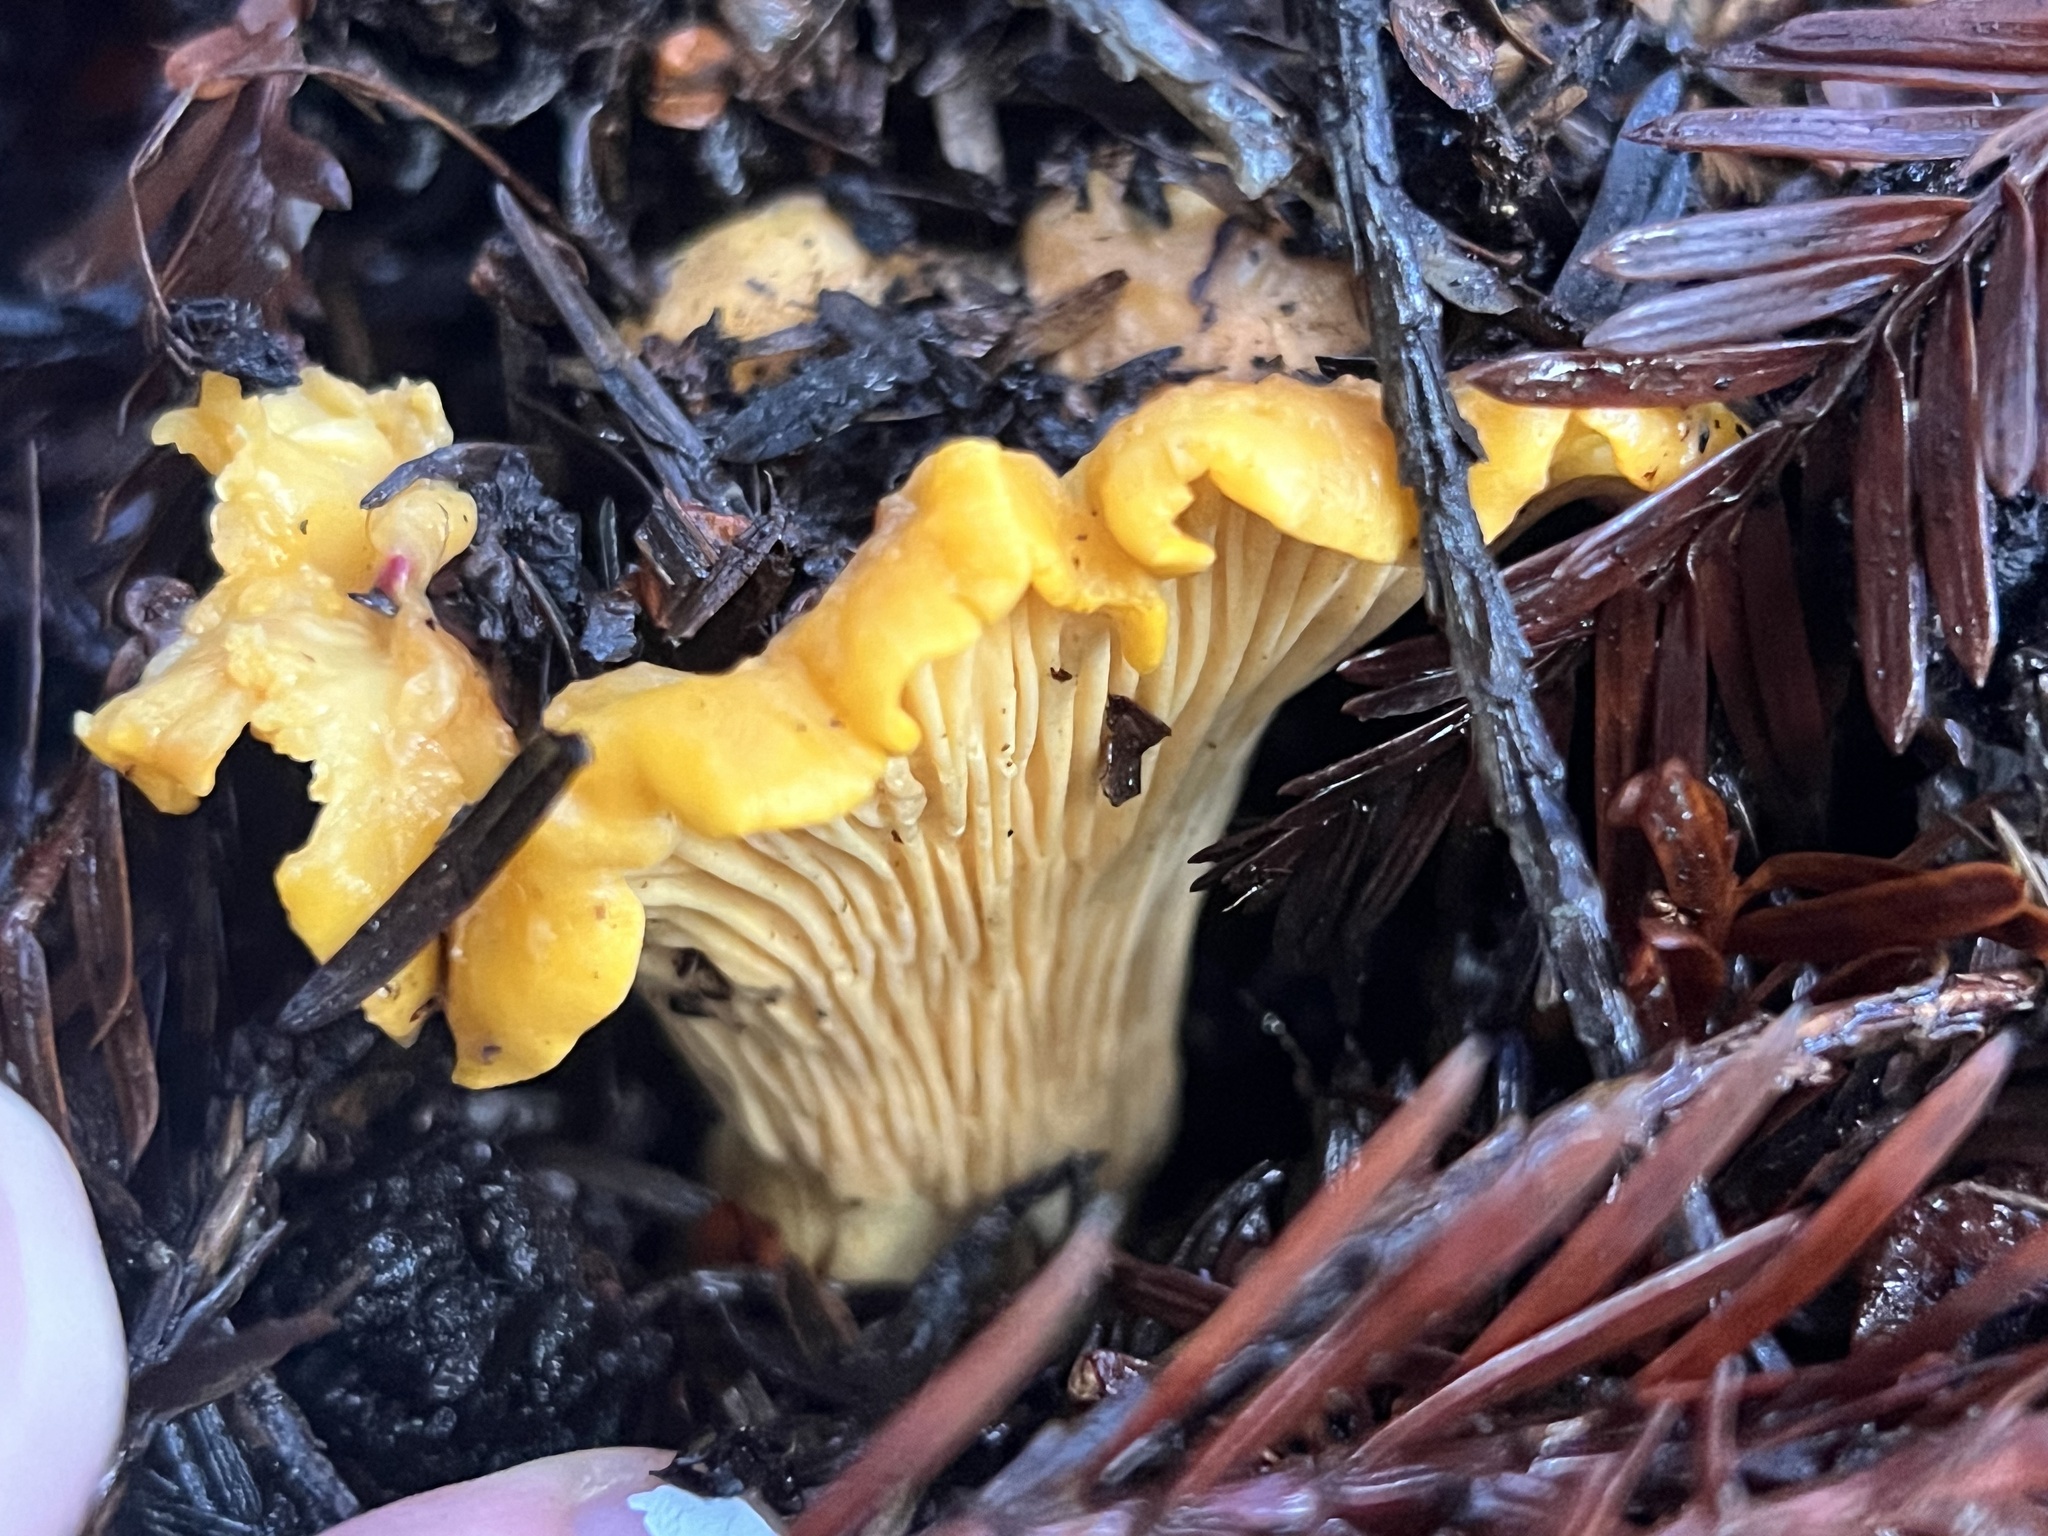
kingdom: Fungi
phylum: Basidiomycota
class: Agaricomycetes
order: Cantharellales
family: Hydnaceae
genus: Cantharellus
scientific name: Cantharellus californicus
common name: California golden chanterelle
